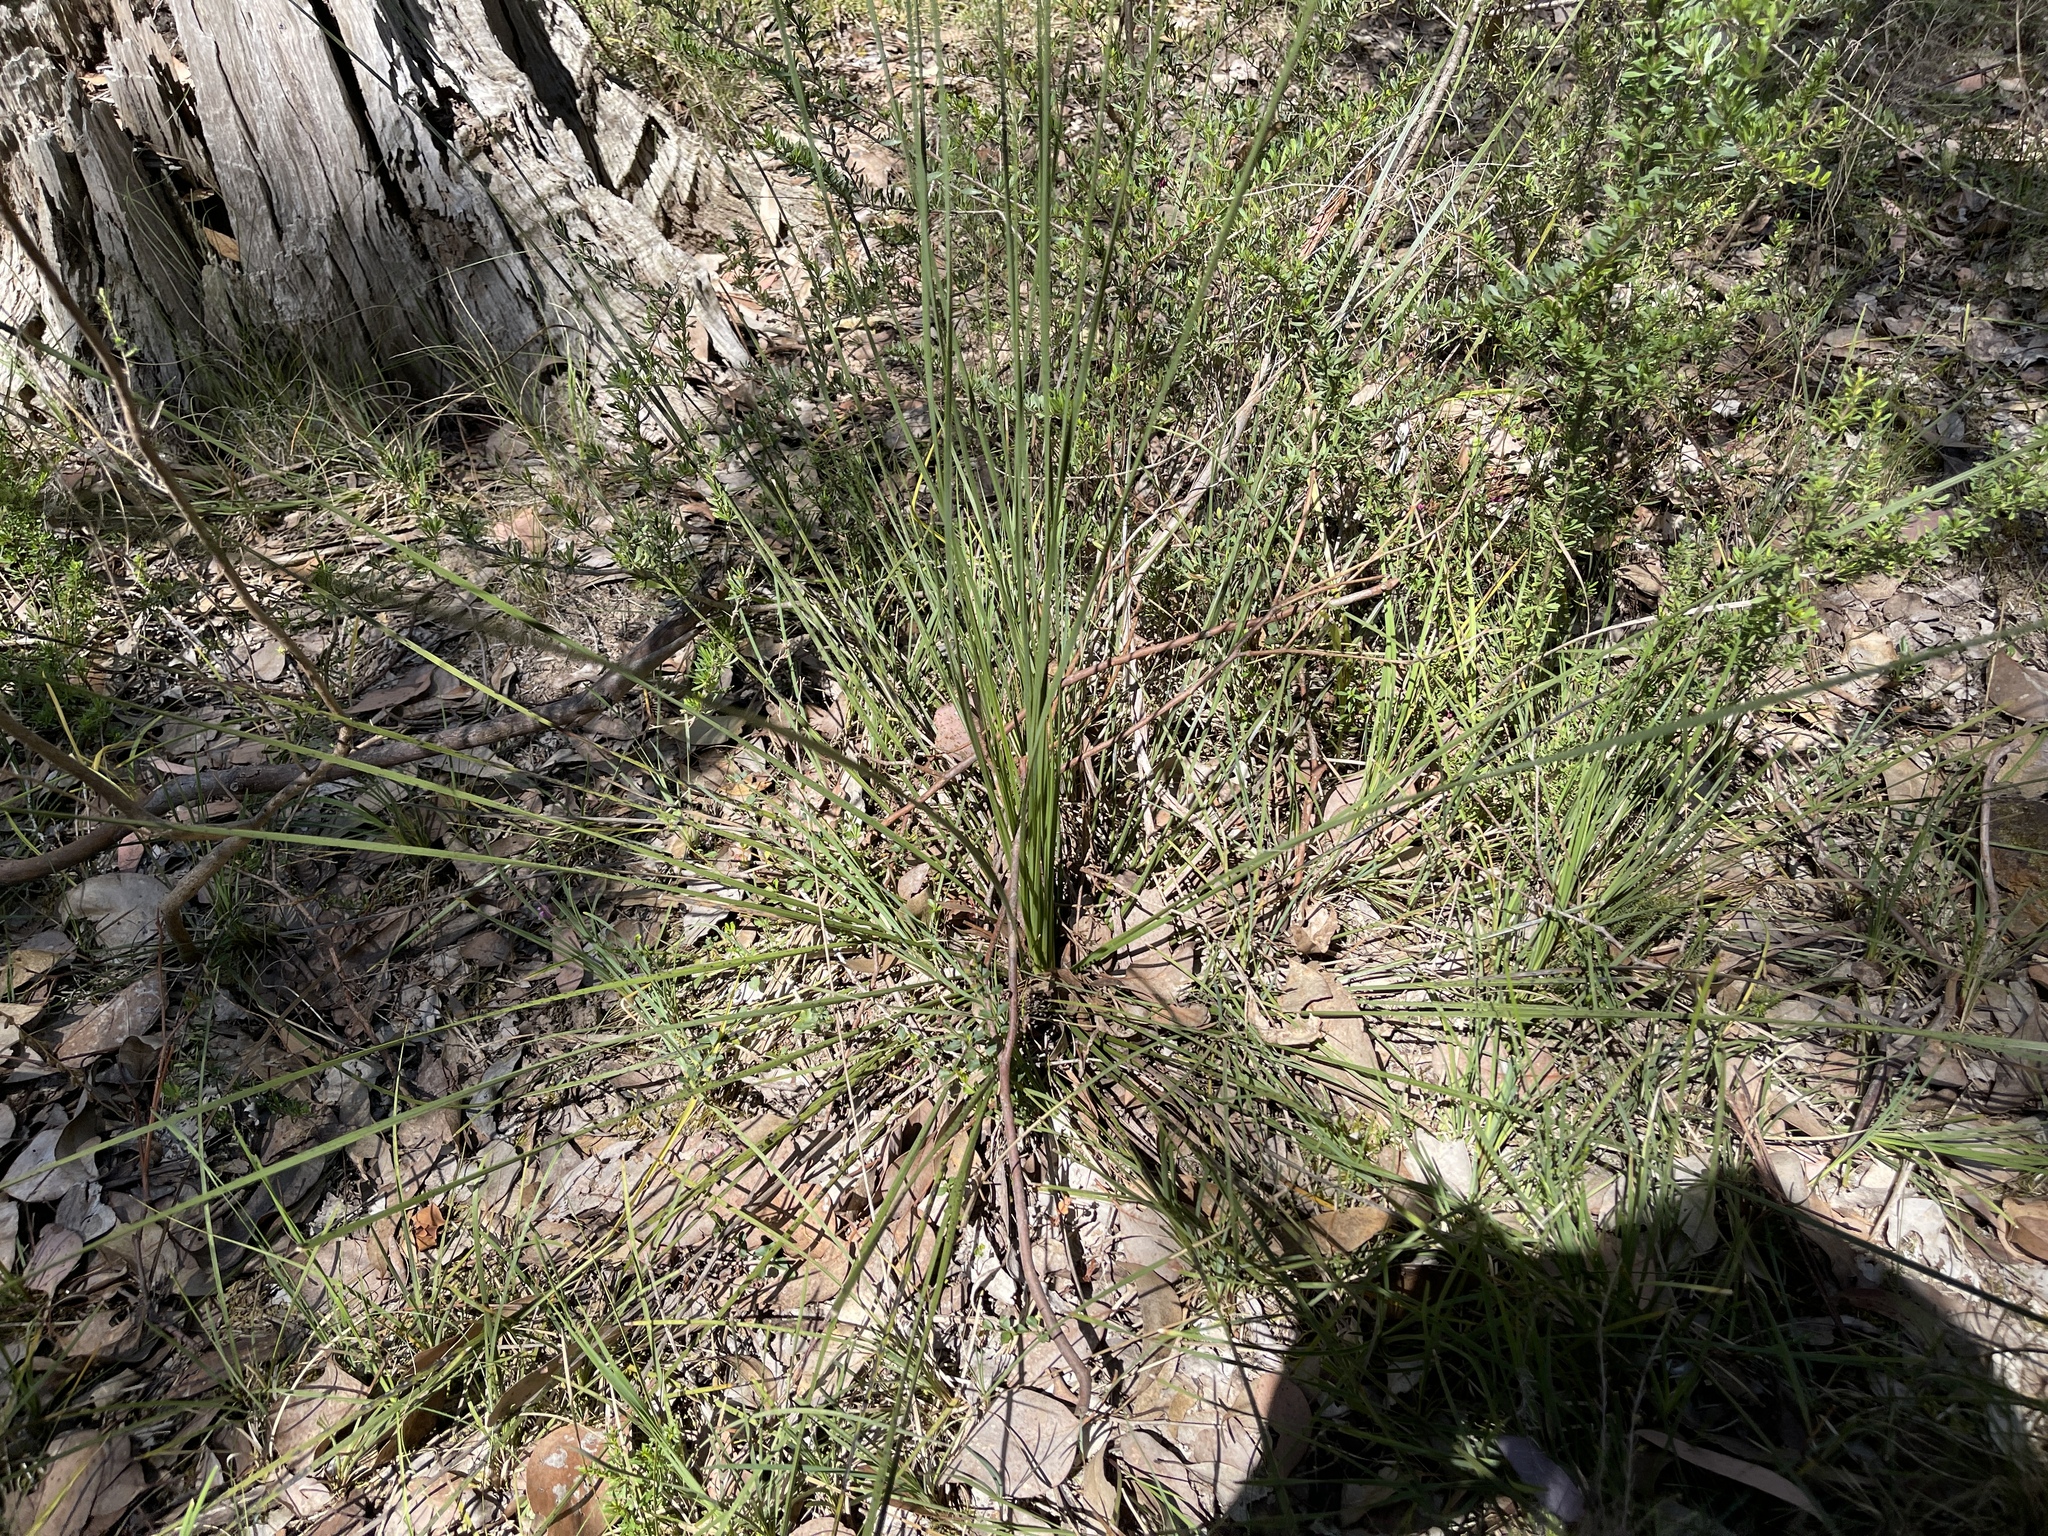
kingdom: Plantae
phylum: Tracheophyta
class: Liliopsida
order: Asparagales
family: Asphodelaceae
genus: Xanthorrhoea
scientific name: Xanthorrhoea minor
